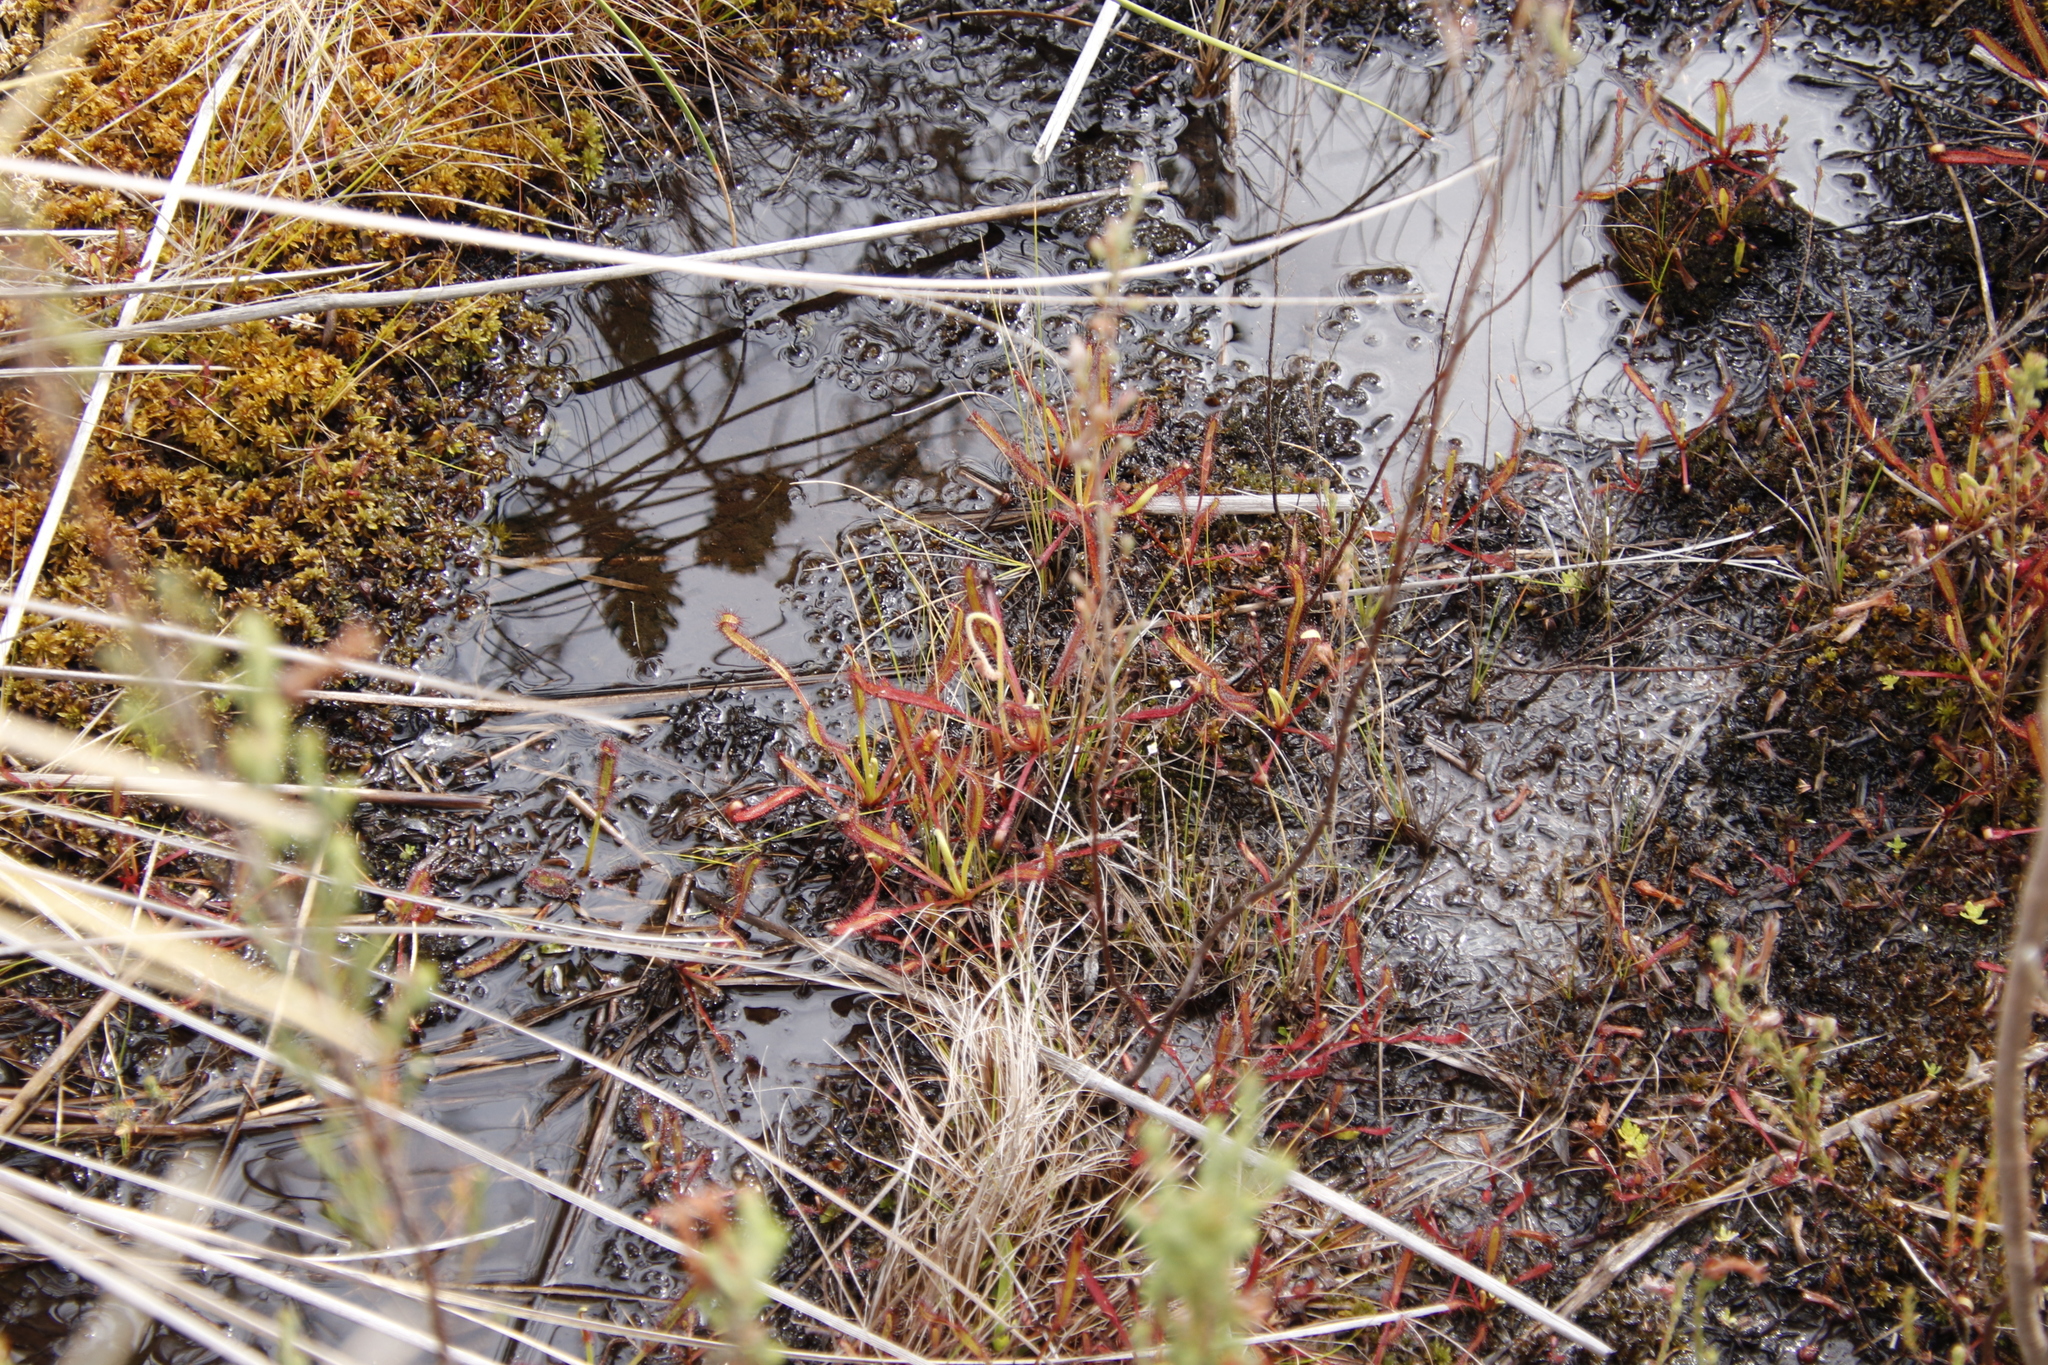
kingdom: Plantae
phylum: Tracheophyta
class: Magnoliopsida
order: Caryophyllales
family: Droseraceae
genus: Drosera
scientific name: Drosera capensis
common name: Cape sundew
